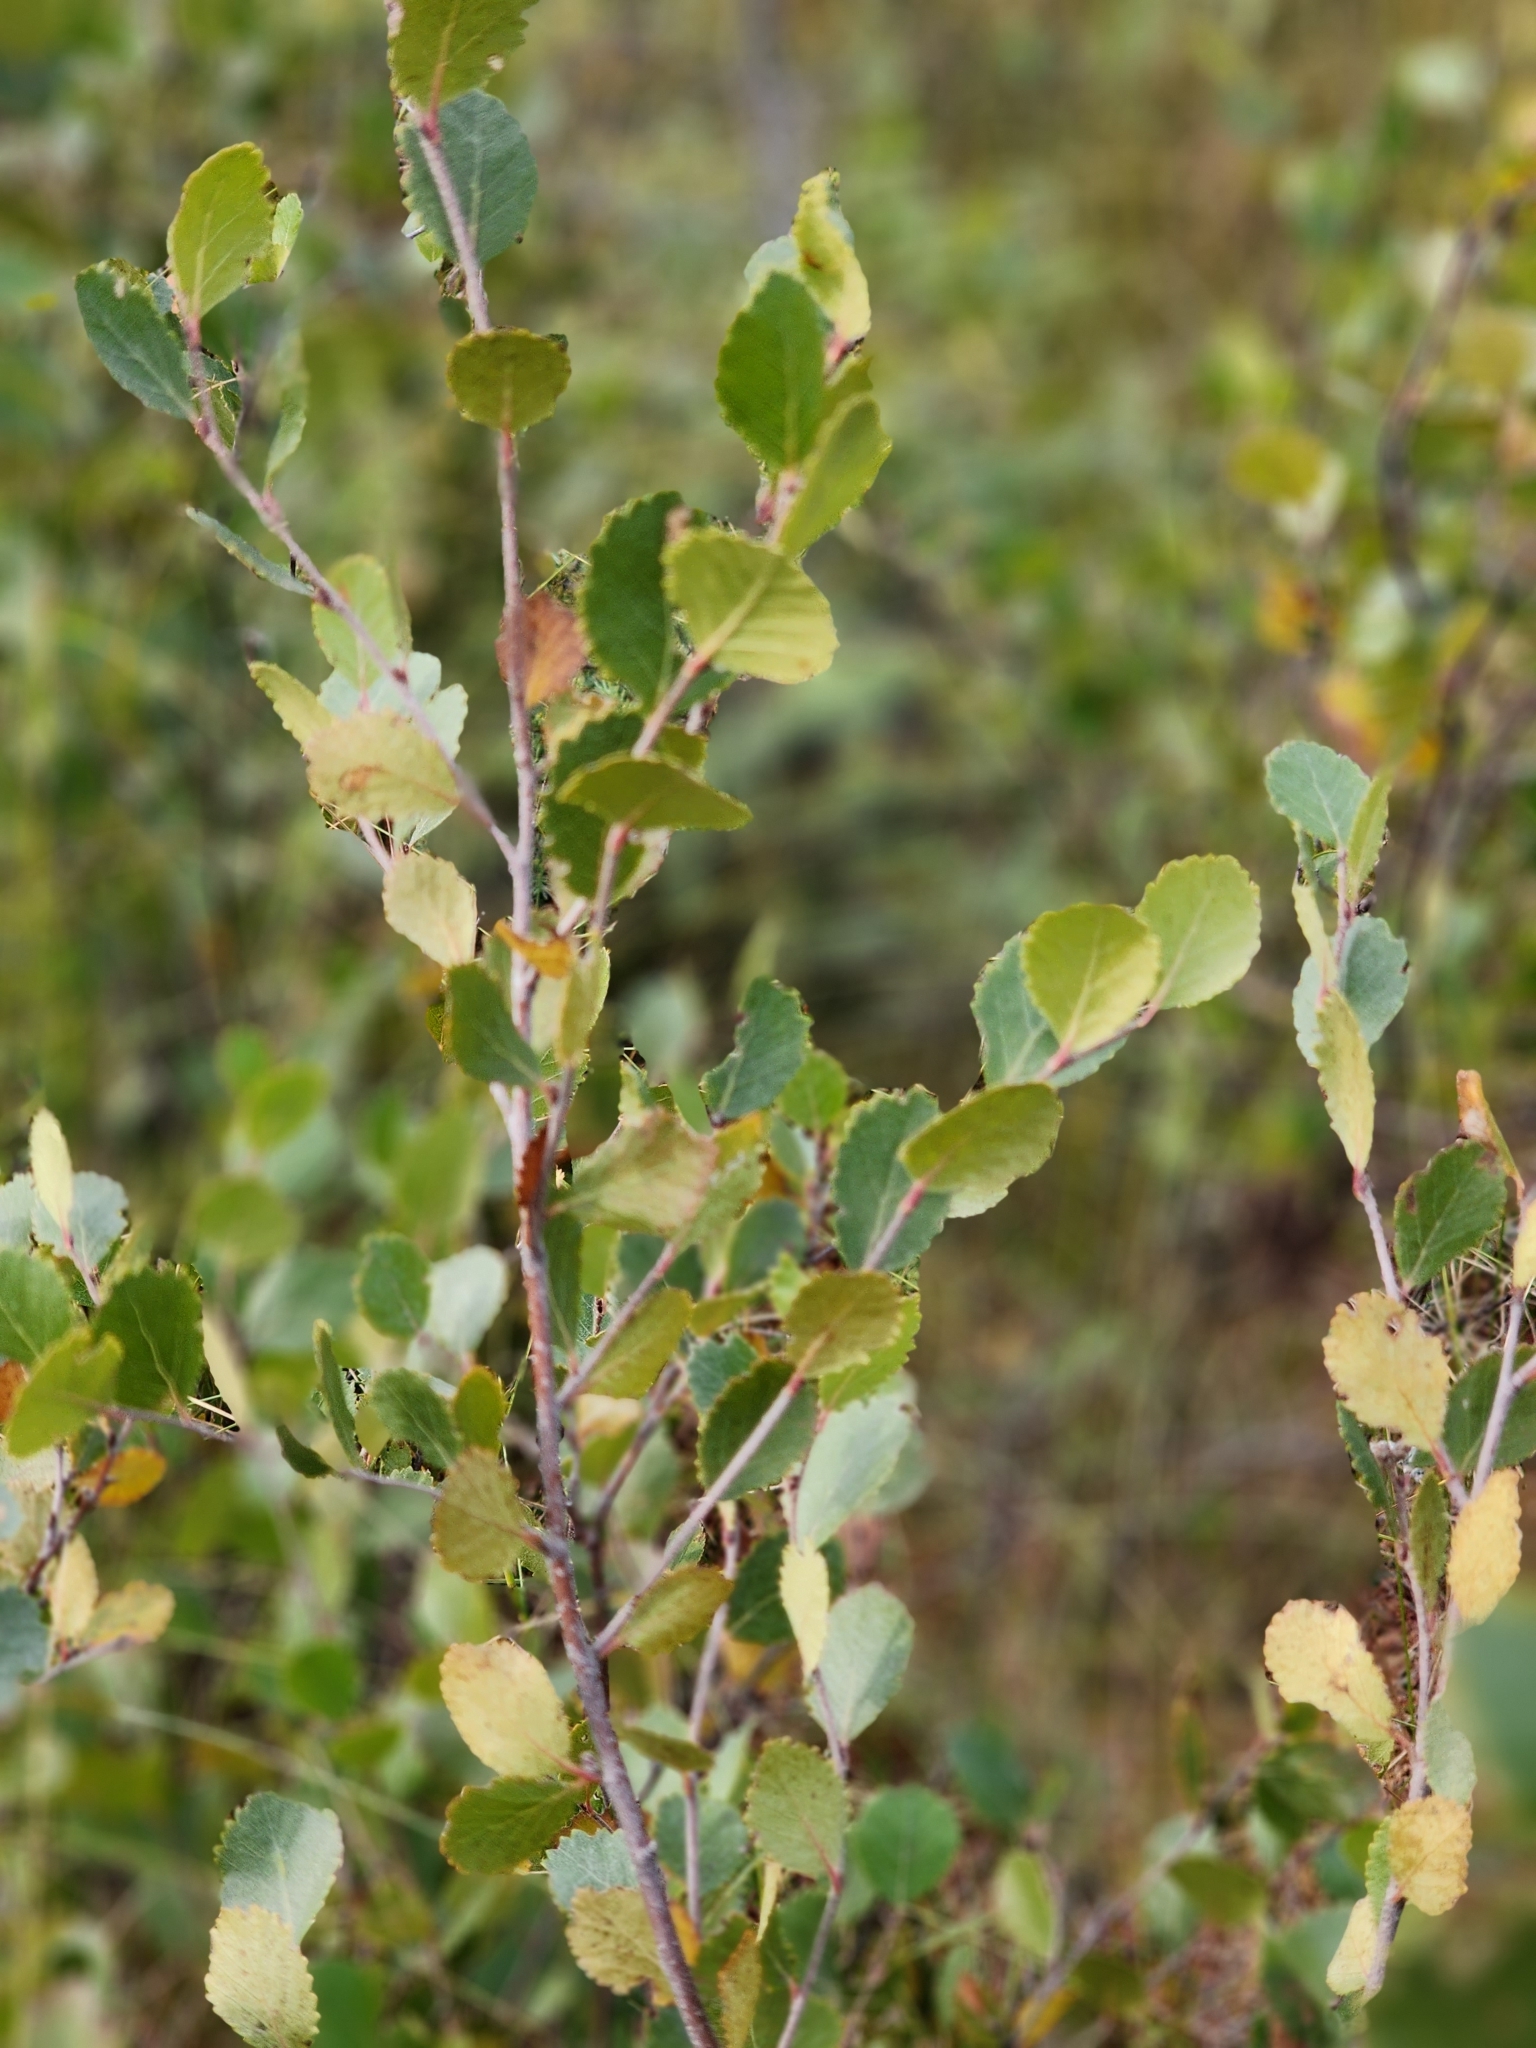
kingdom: Plantae
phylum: Tracheophyta
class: Magnoliopsida
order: Fagales
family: Betulaceae
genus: Betula
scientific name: Betula pumila
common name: Bog birch
